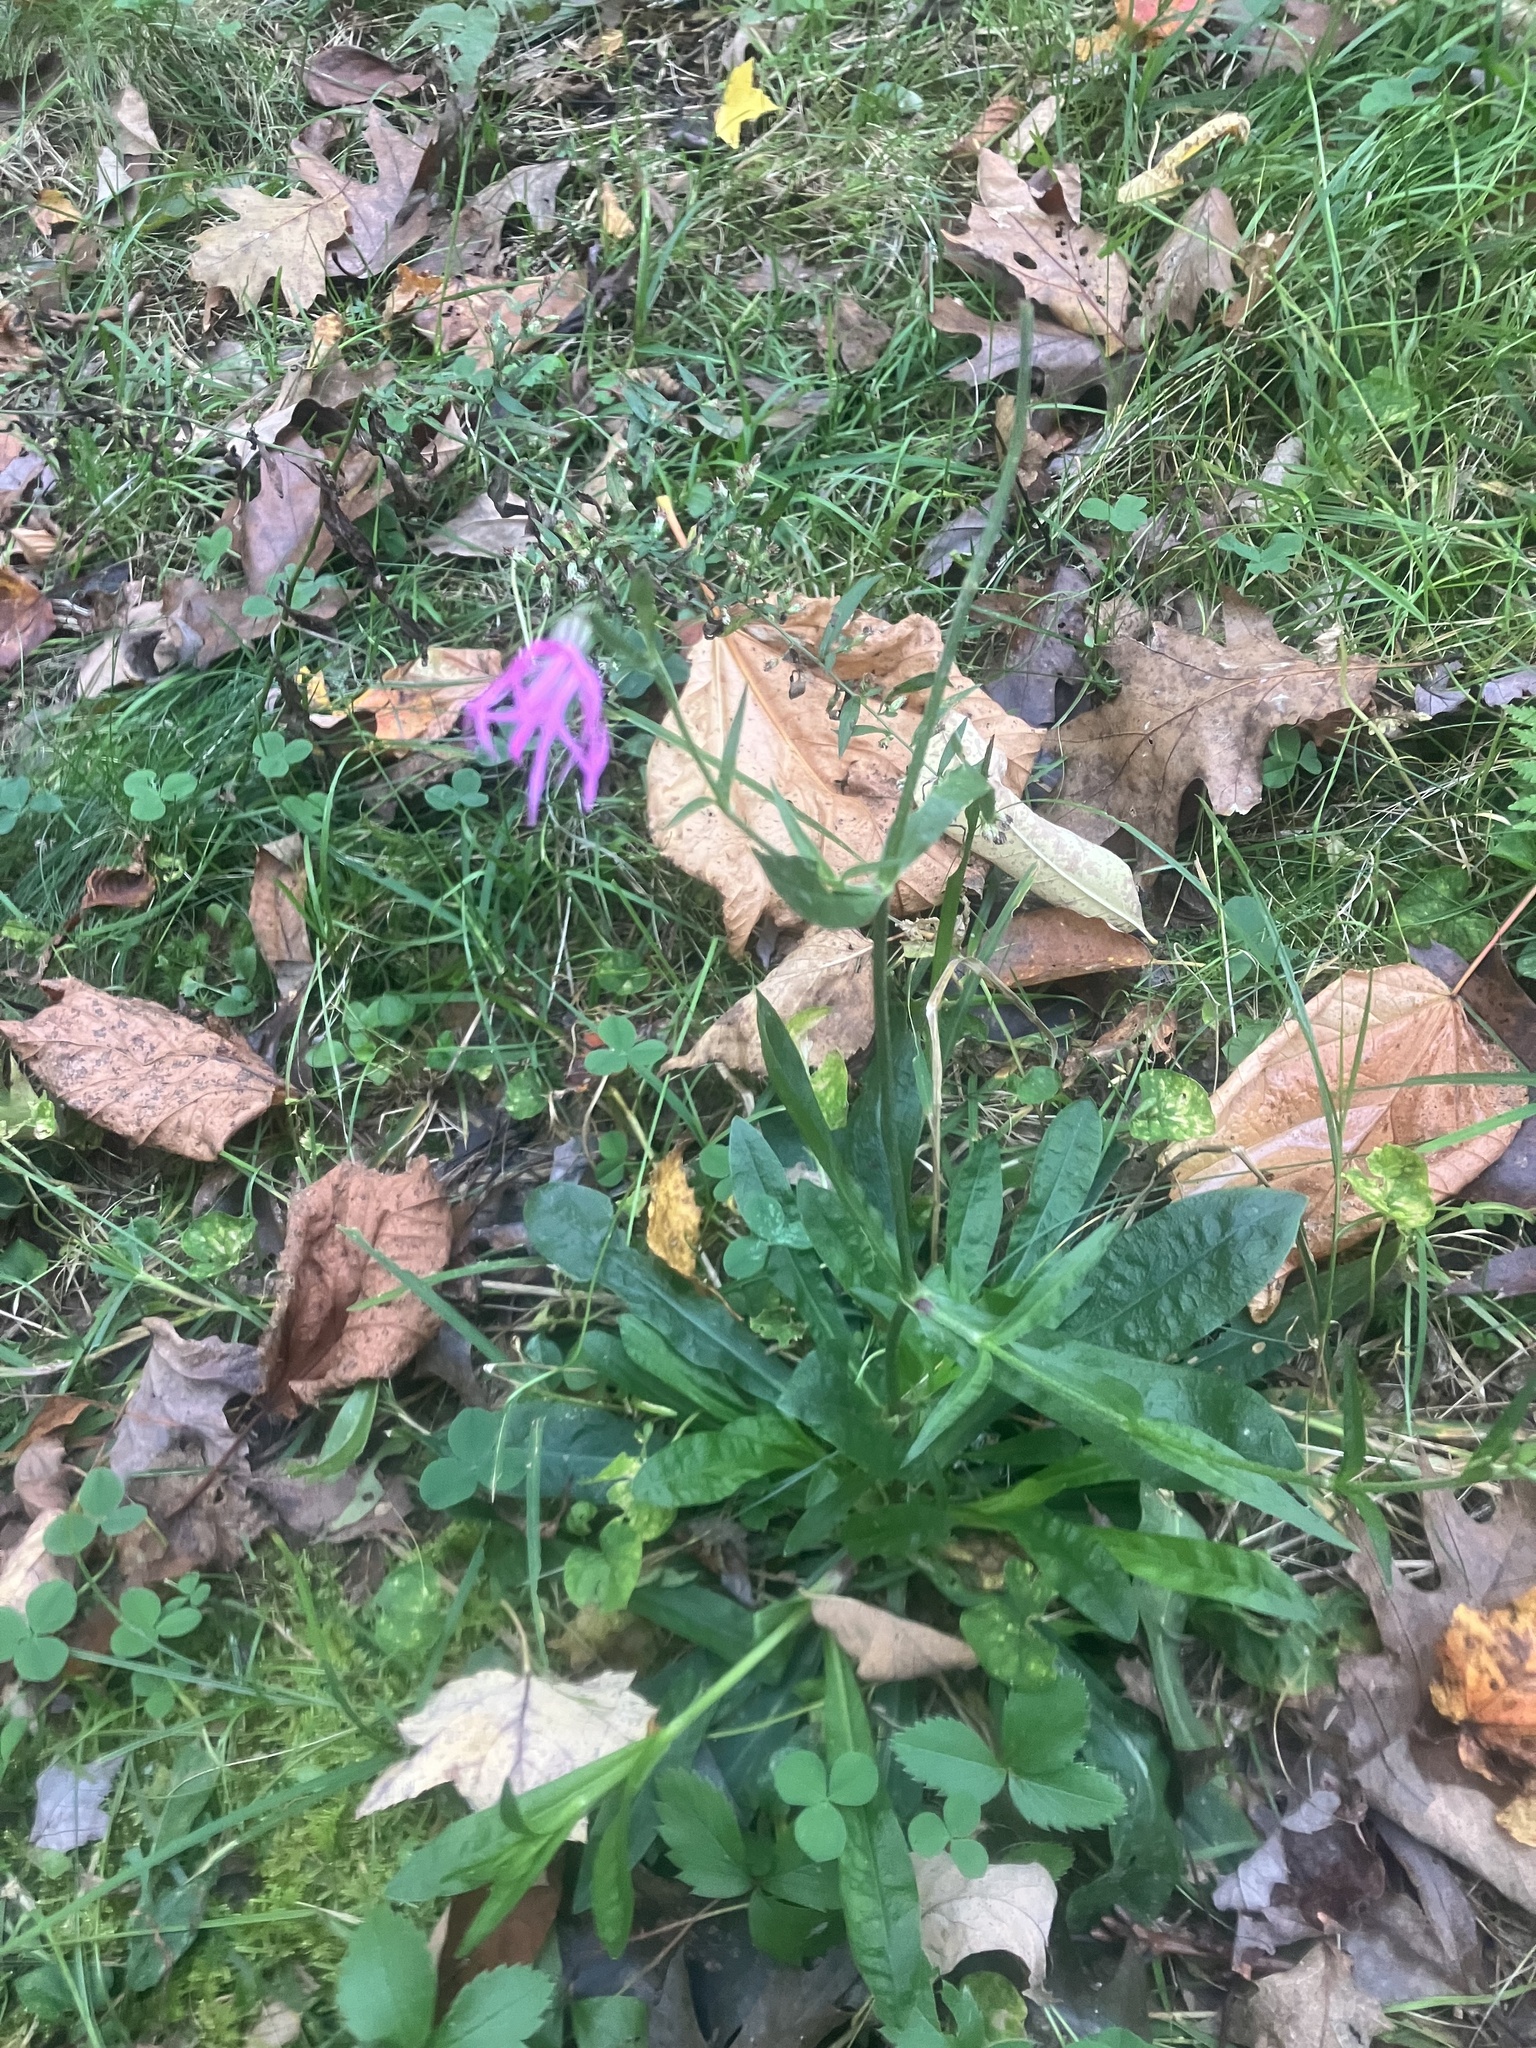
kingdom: Plantae
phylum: Tracheophyta
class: Magnoliopsida
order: Caryophyllales
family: Caryophyllaceae
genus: Silene
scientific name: Silene flos-cuculi
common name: Ragged-robin
